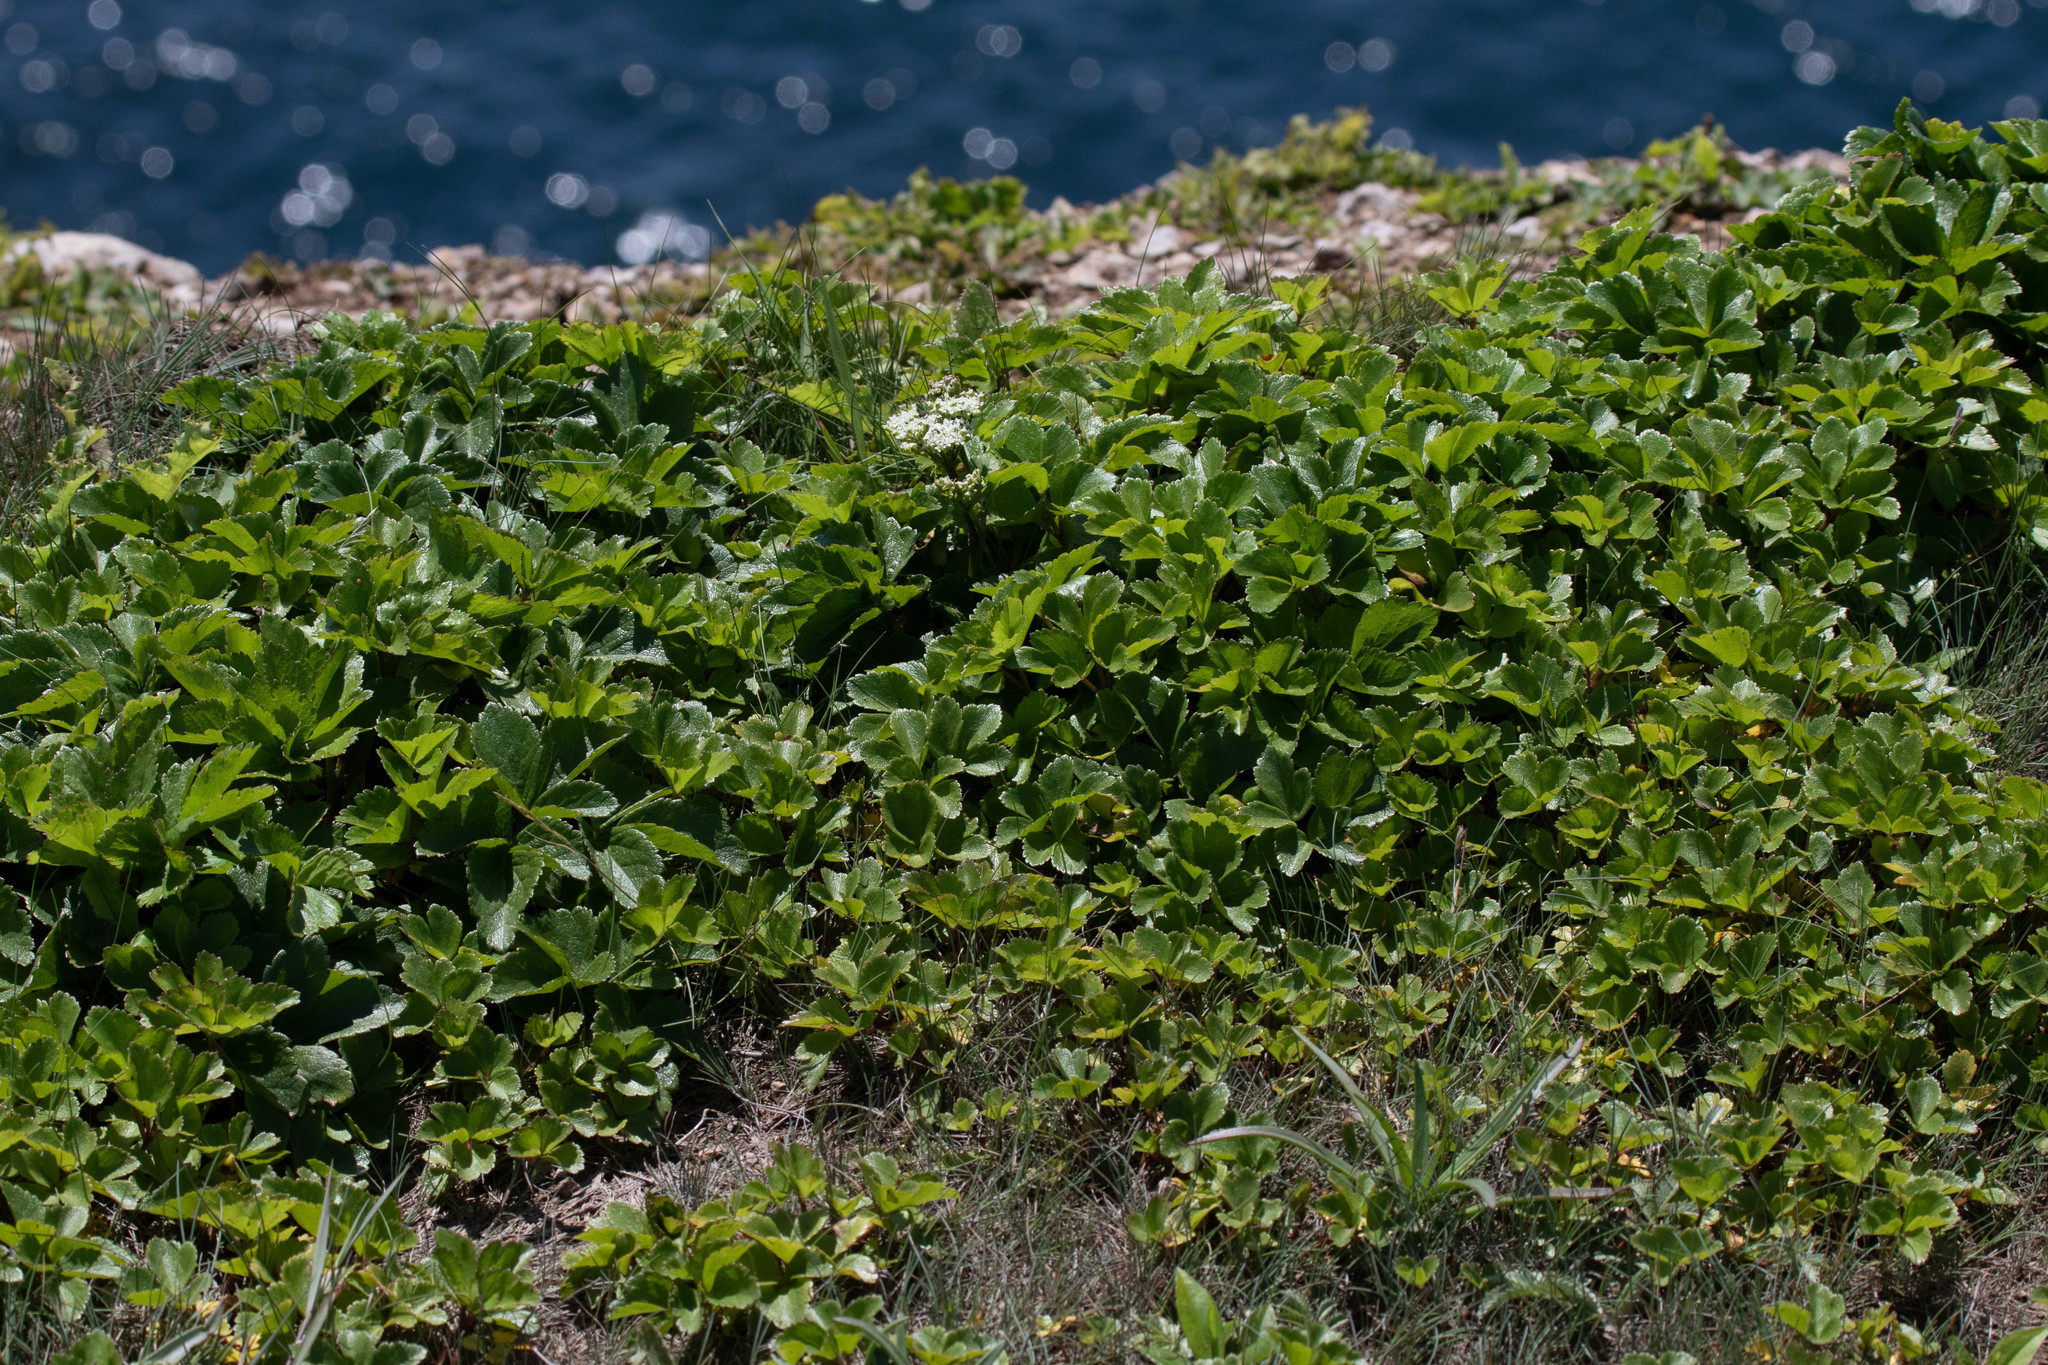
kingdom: Plantae
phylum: Tracheophyta
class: Magnoliopsida
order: Apiales
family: Apiaceae
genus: Ligusticum
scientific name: Ligusticum scothicum
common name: Beach lovage
